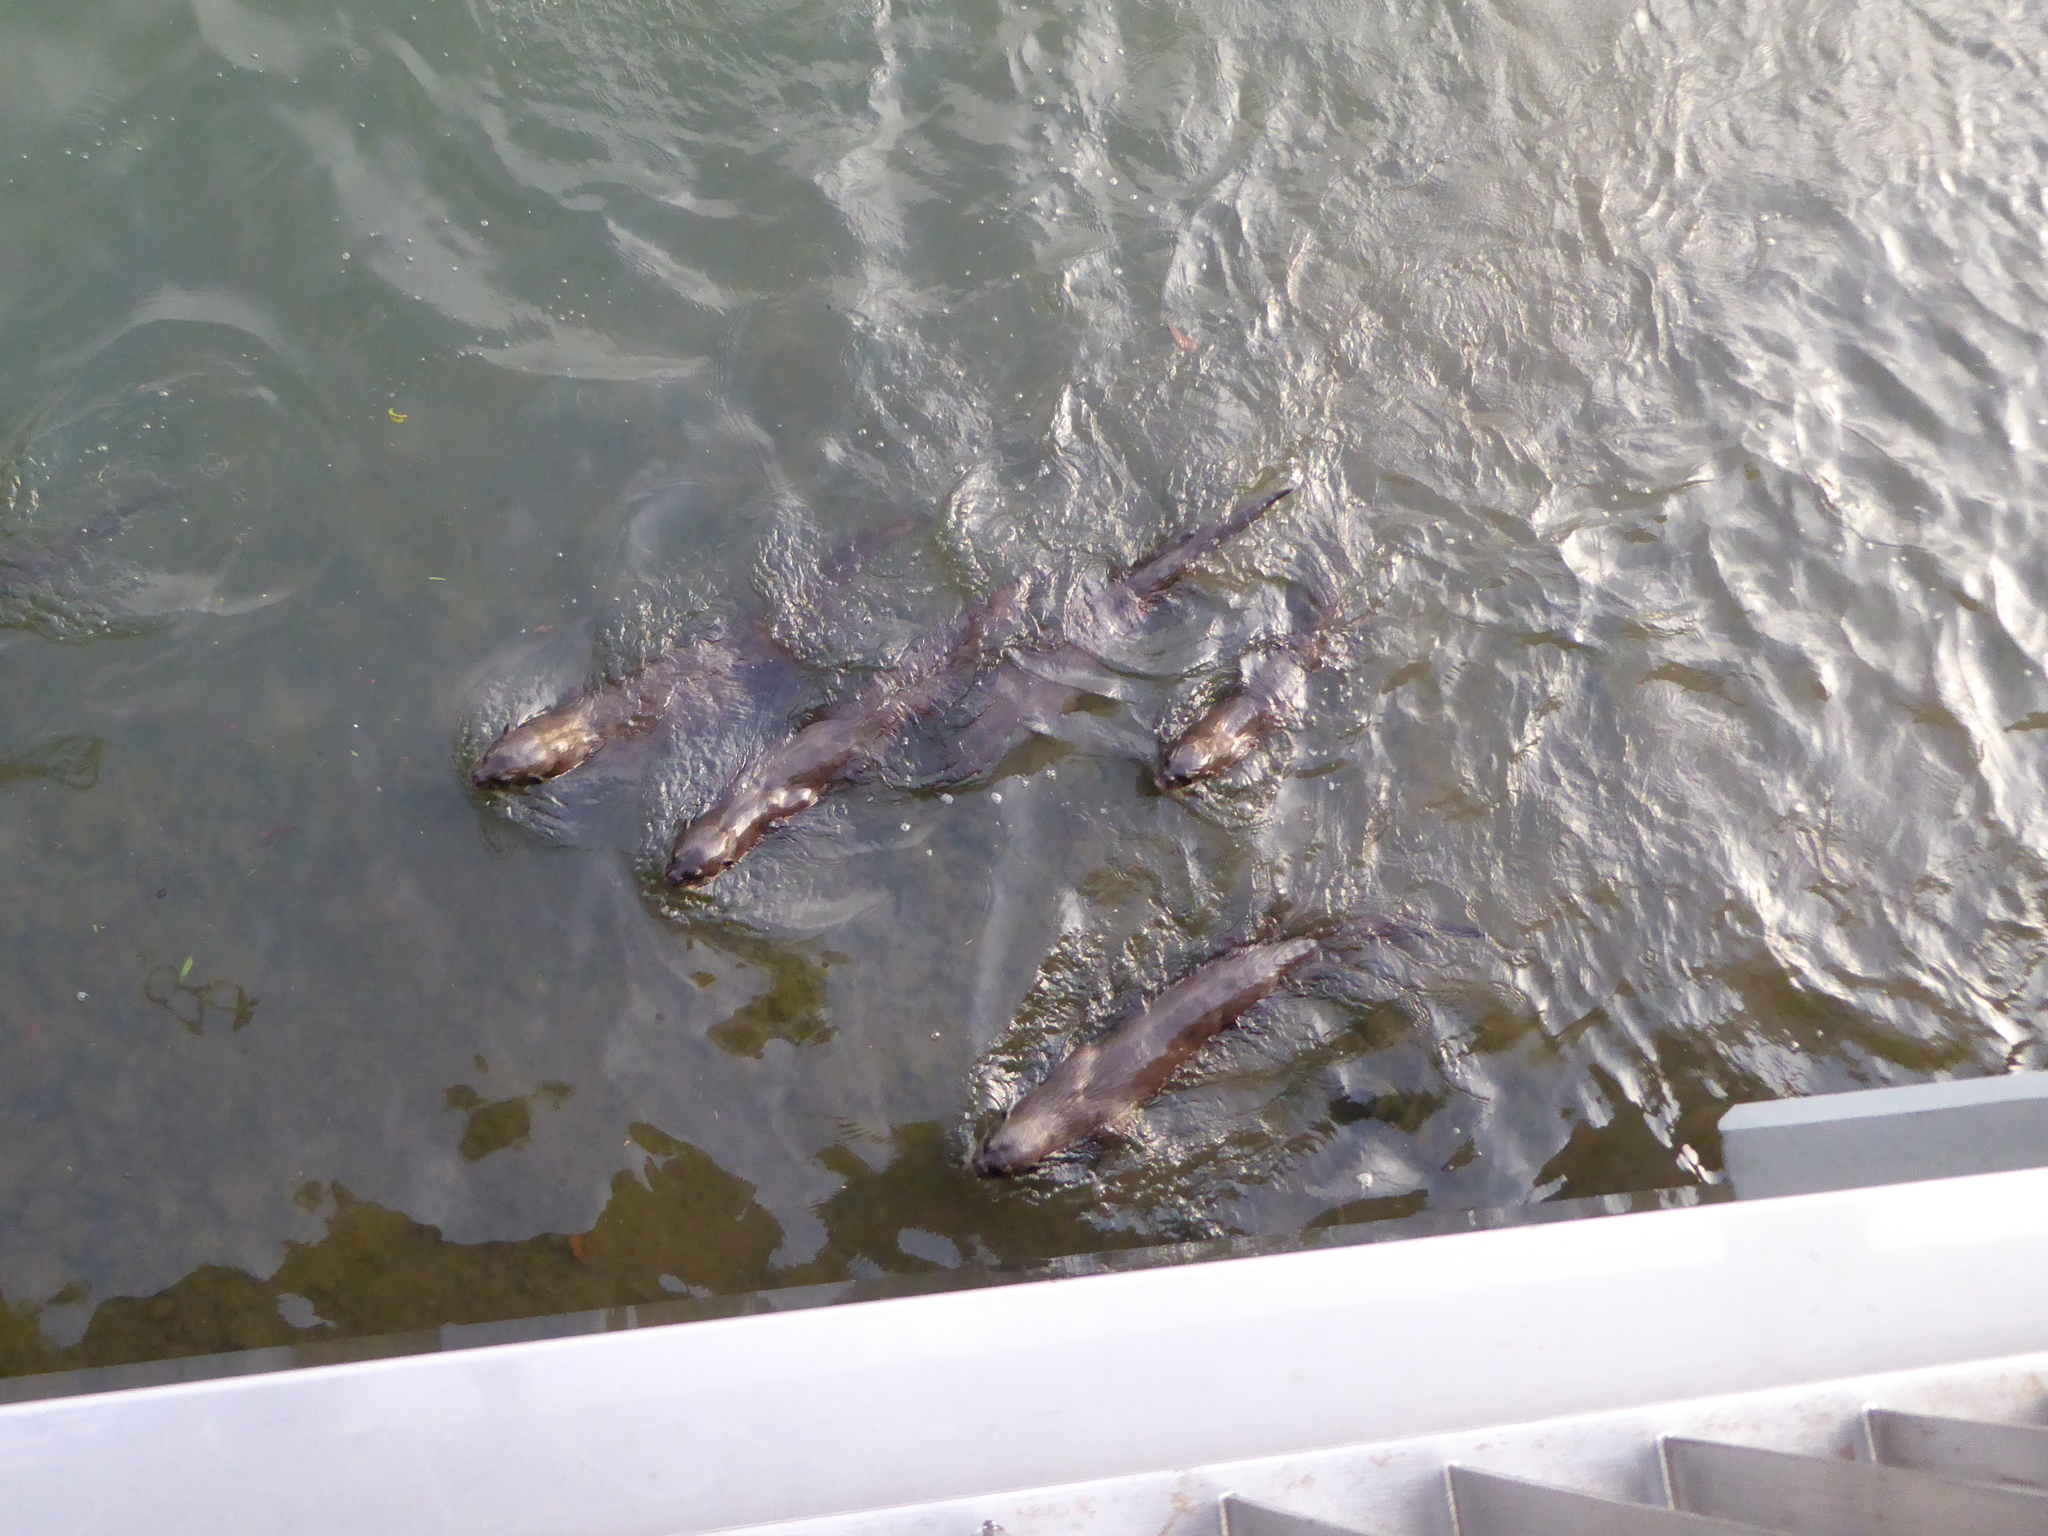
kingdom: Animalia
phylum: Chordata
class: Mammalia
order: Carnivora
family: Mustelidae
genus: Lutrogale
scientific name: Lutrogale perspicillata
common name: Smooth-coated otter
